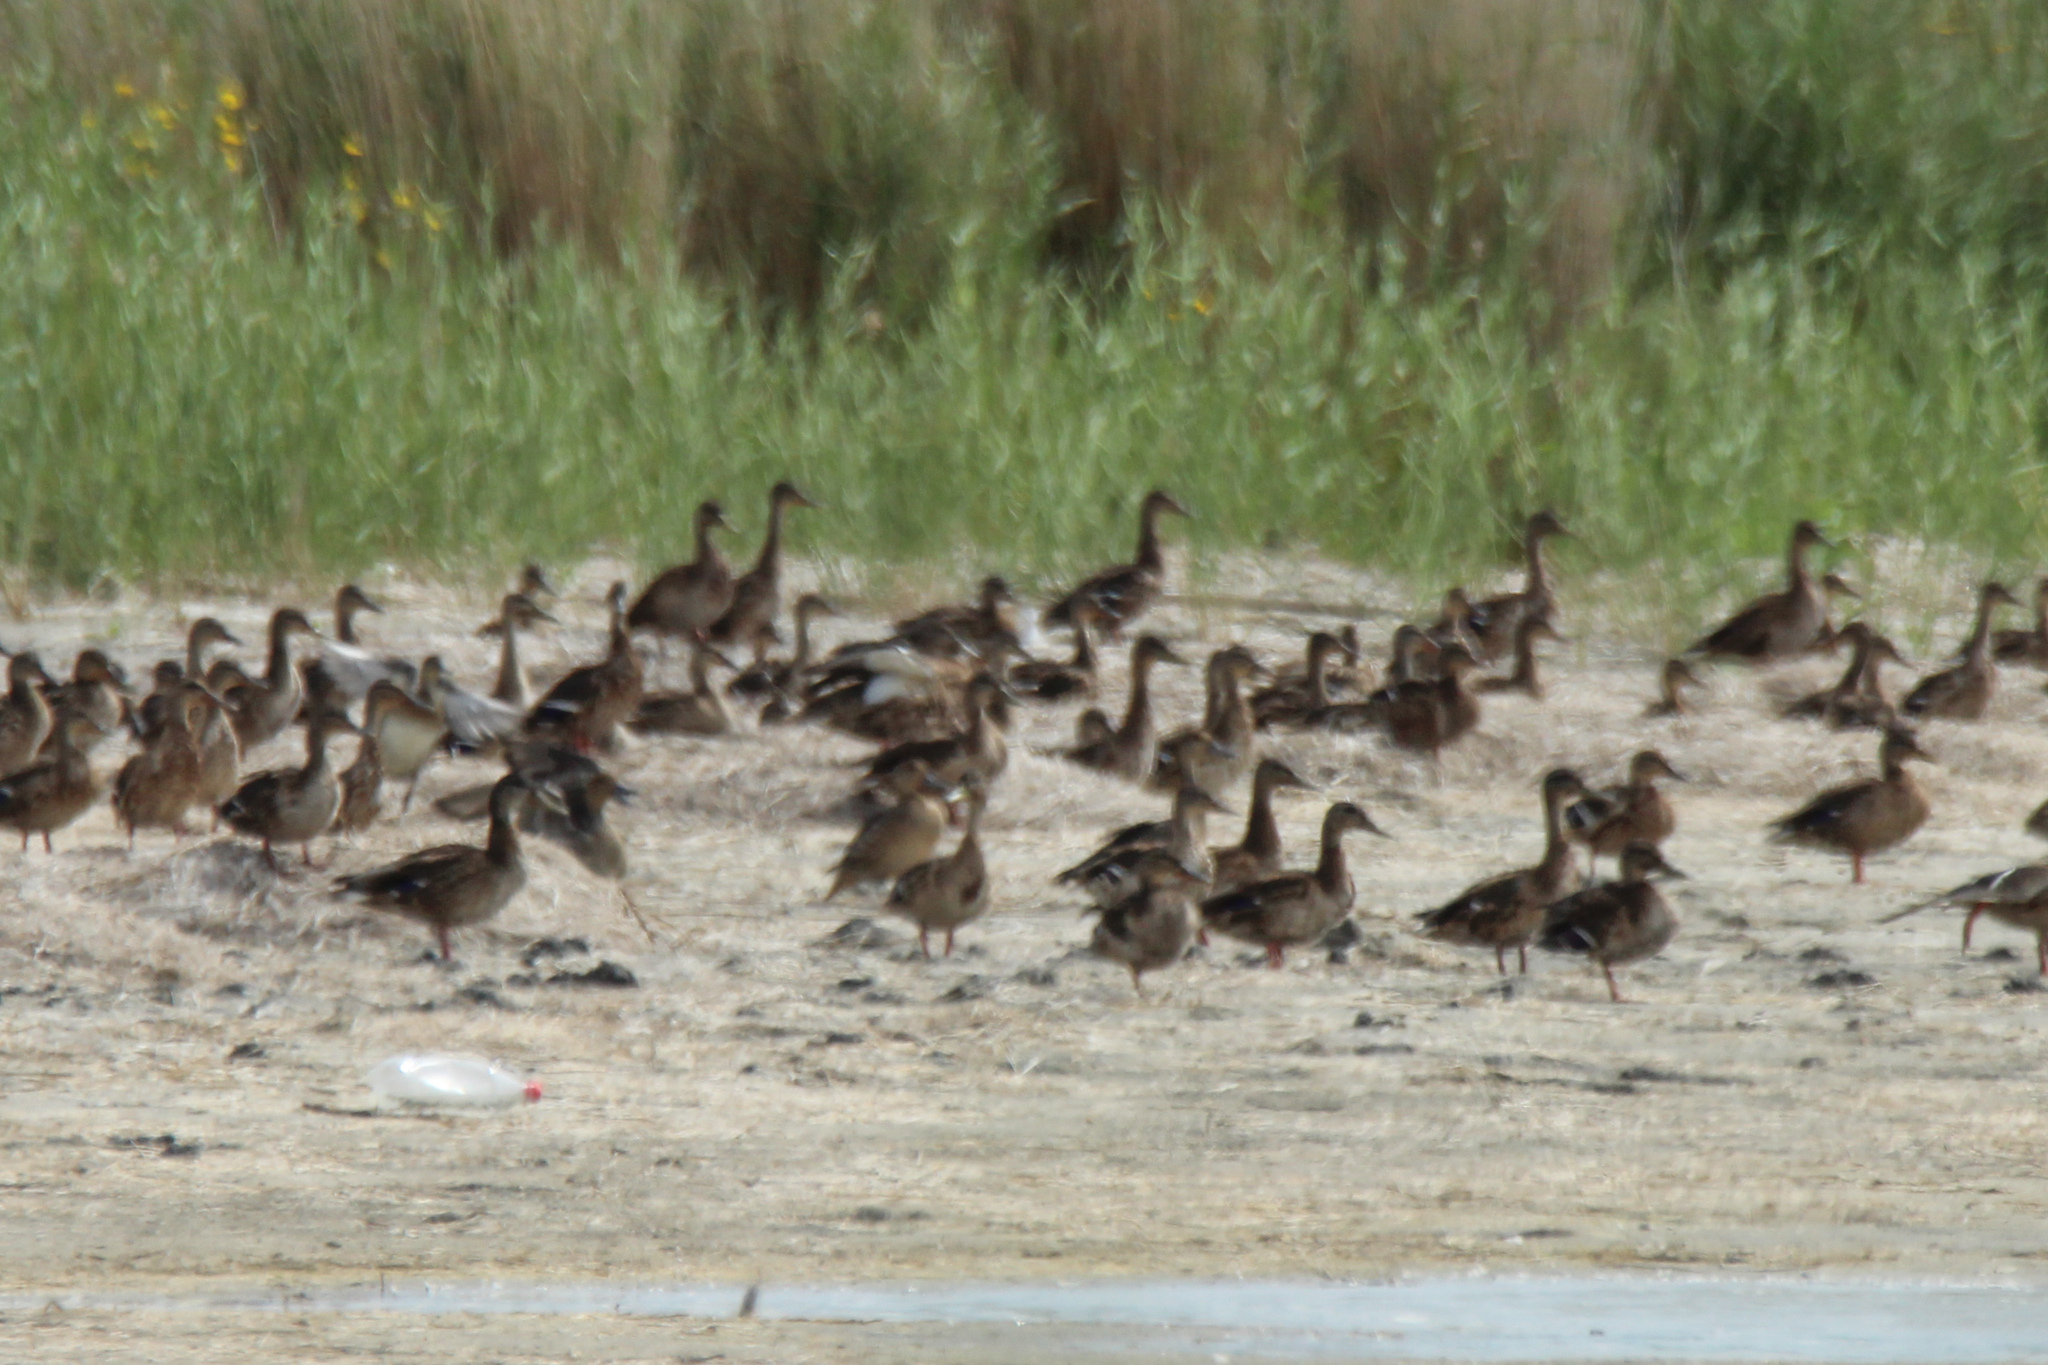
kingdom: Animalia
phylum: Chordata
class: Aves
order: Anseriformes
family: Anatidae
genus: Anas
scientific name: Anas platyrhynchos
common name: Mallard
